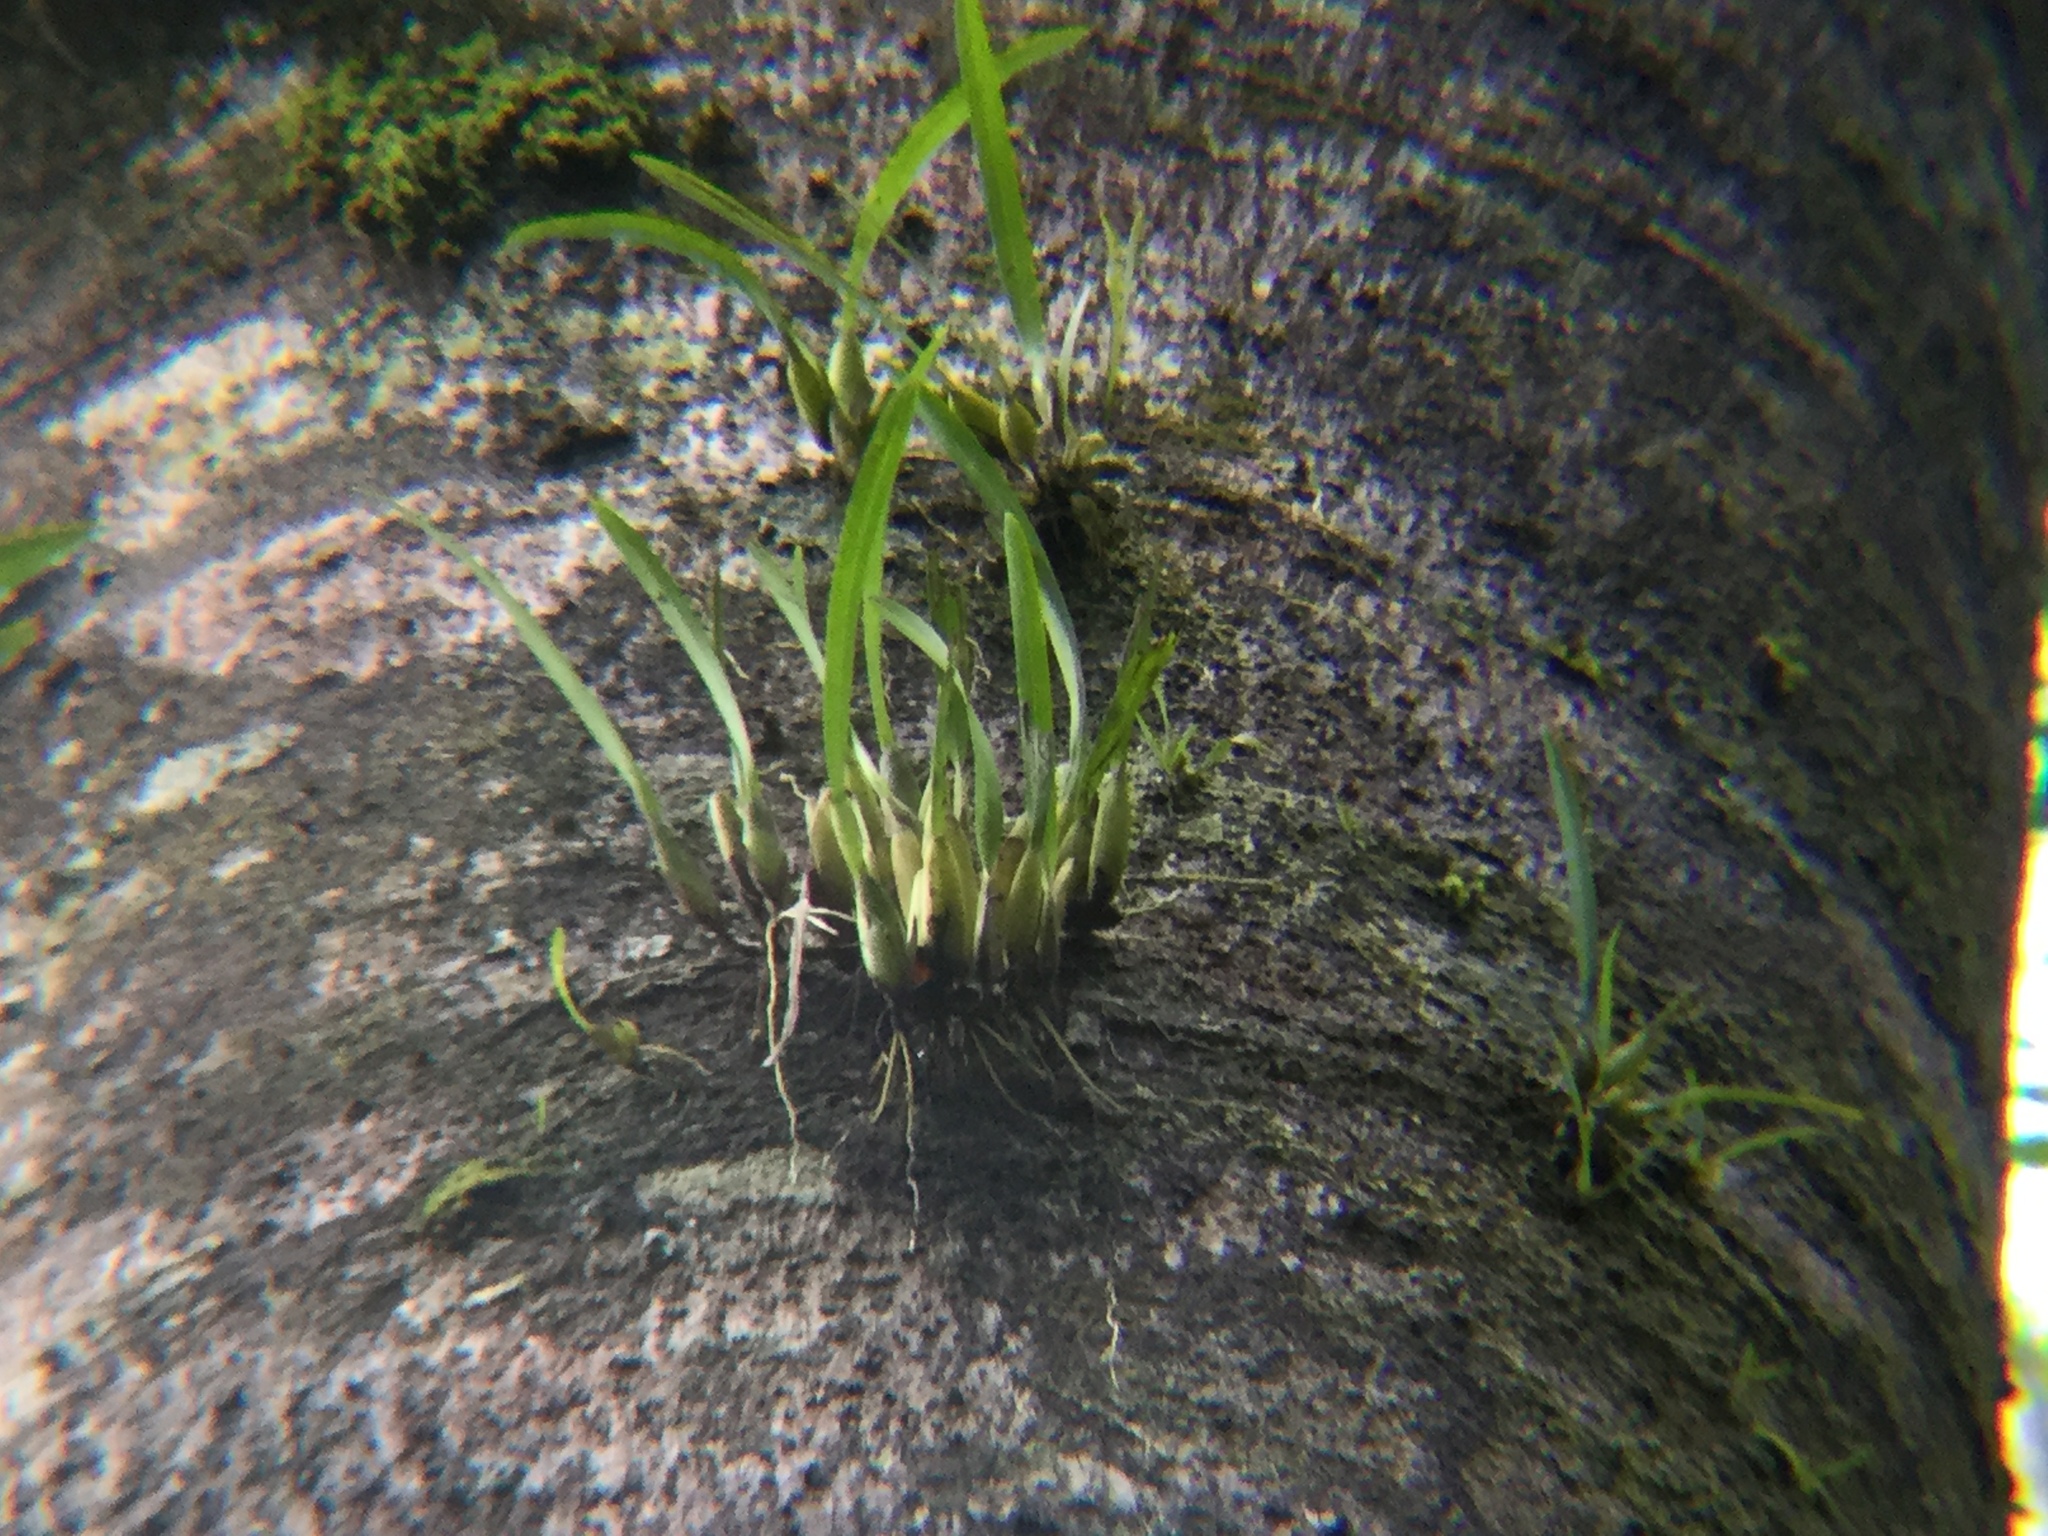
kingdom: Plantae
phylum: Tracheophyta
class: Liliopsida
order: Asparagales
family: Orchidaceae
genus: Nidema
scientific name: Nidema boothii
